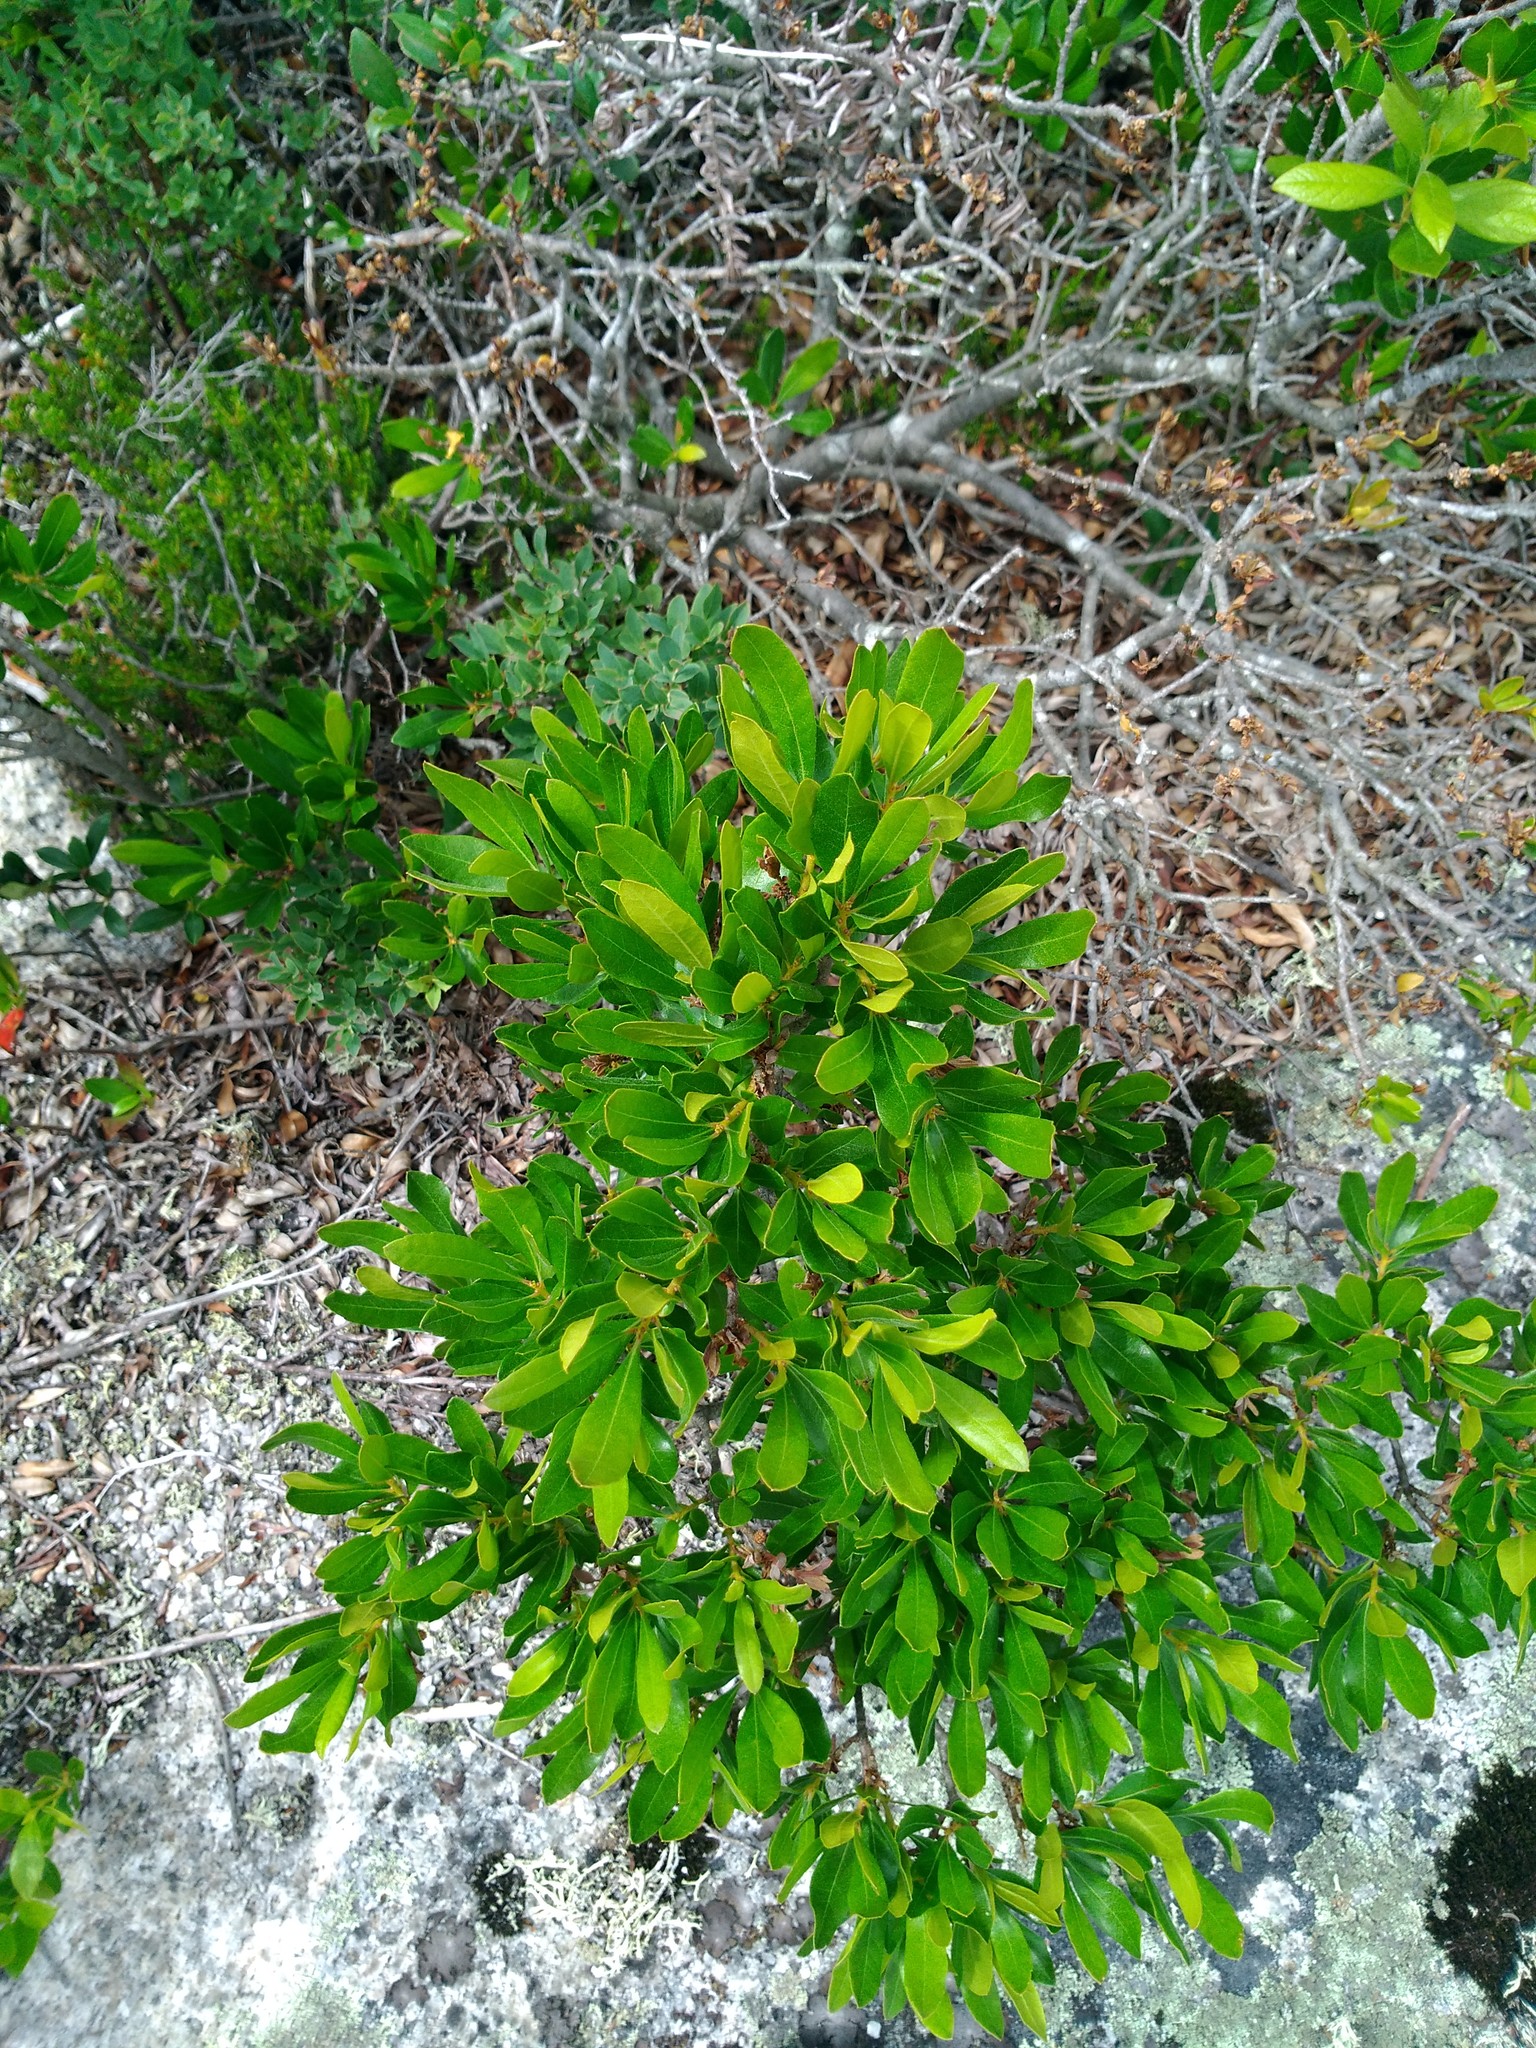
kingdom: Plantae
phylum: Tracheophyta
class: Magnoliopsida
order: Fagales
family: Myricaceae
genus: Morella
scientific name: Morella pensylvanica
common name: Northern bayberry
